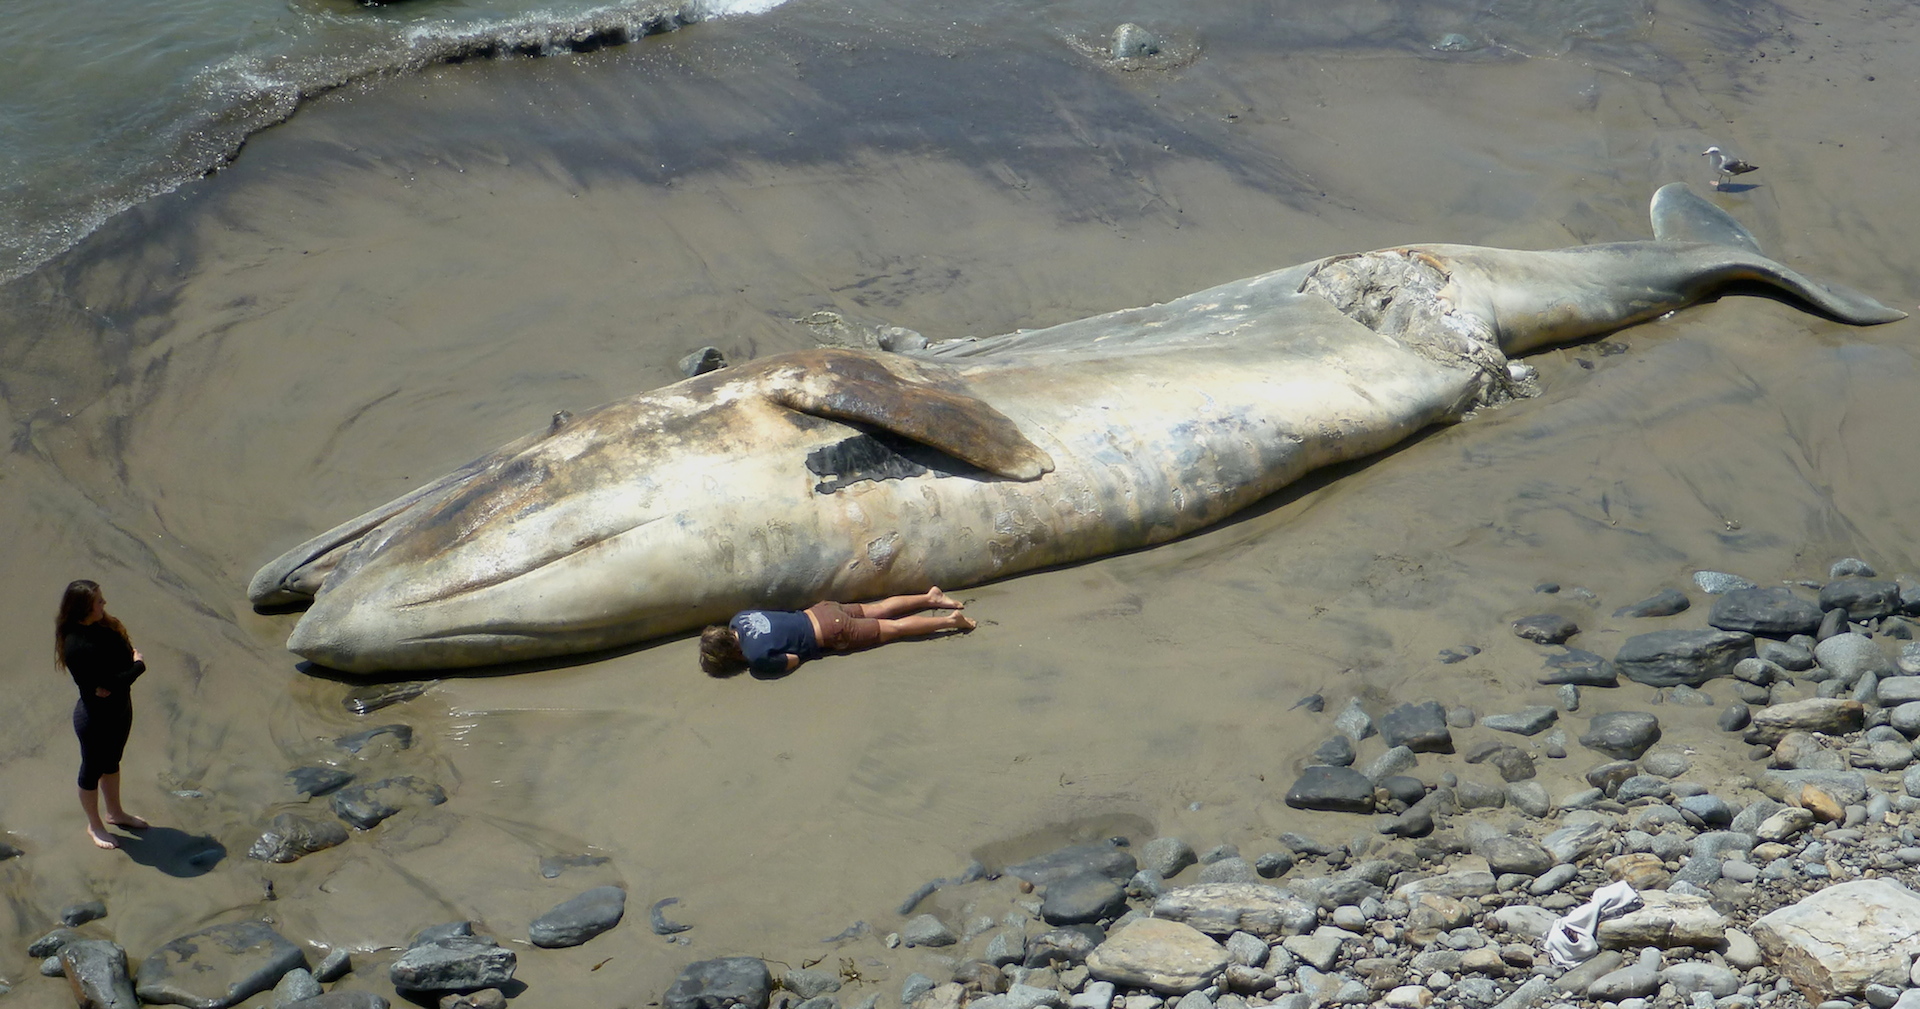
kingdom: Animalia
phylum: Chordata
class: Mammalia
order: Cetacea
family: Eschrichtiidae
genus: Eschrichtius
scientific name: Eschrichtius robustus
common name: Gray whale
